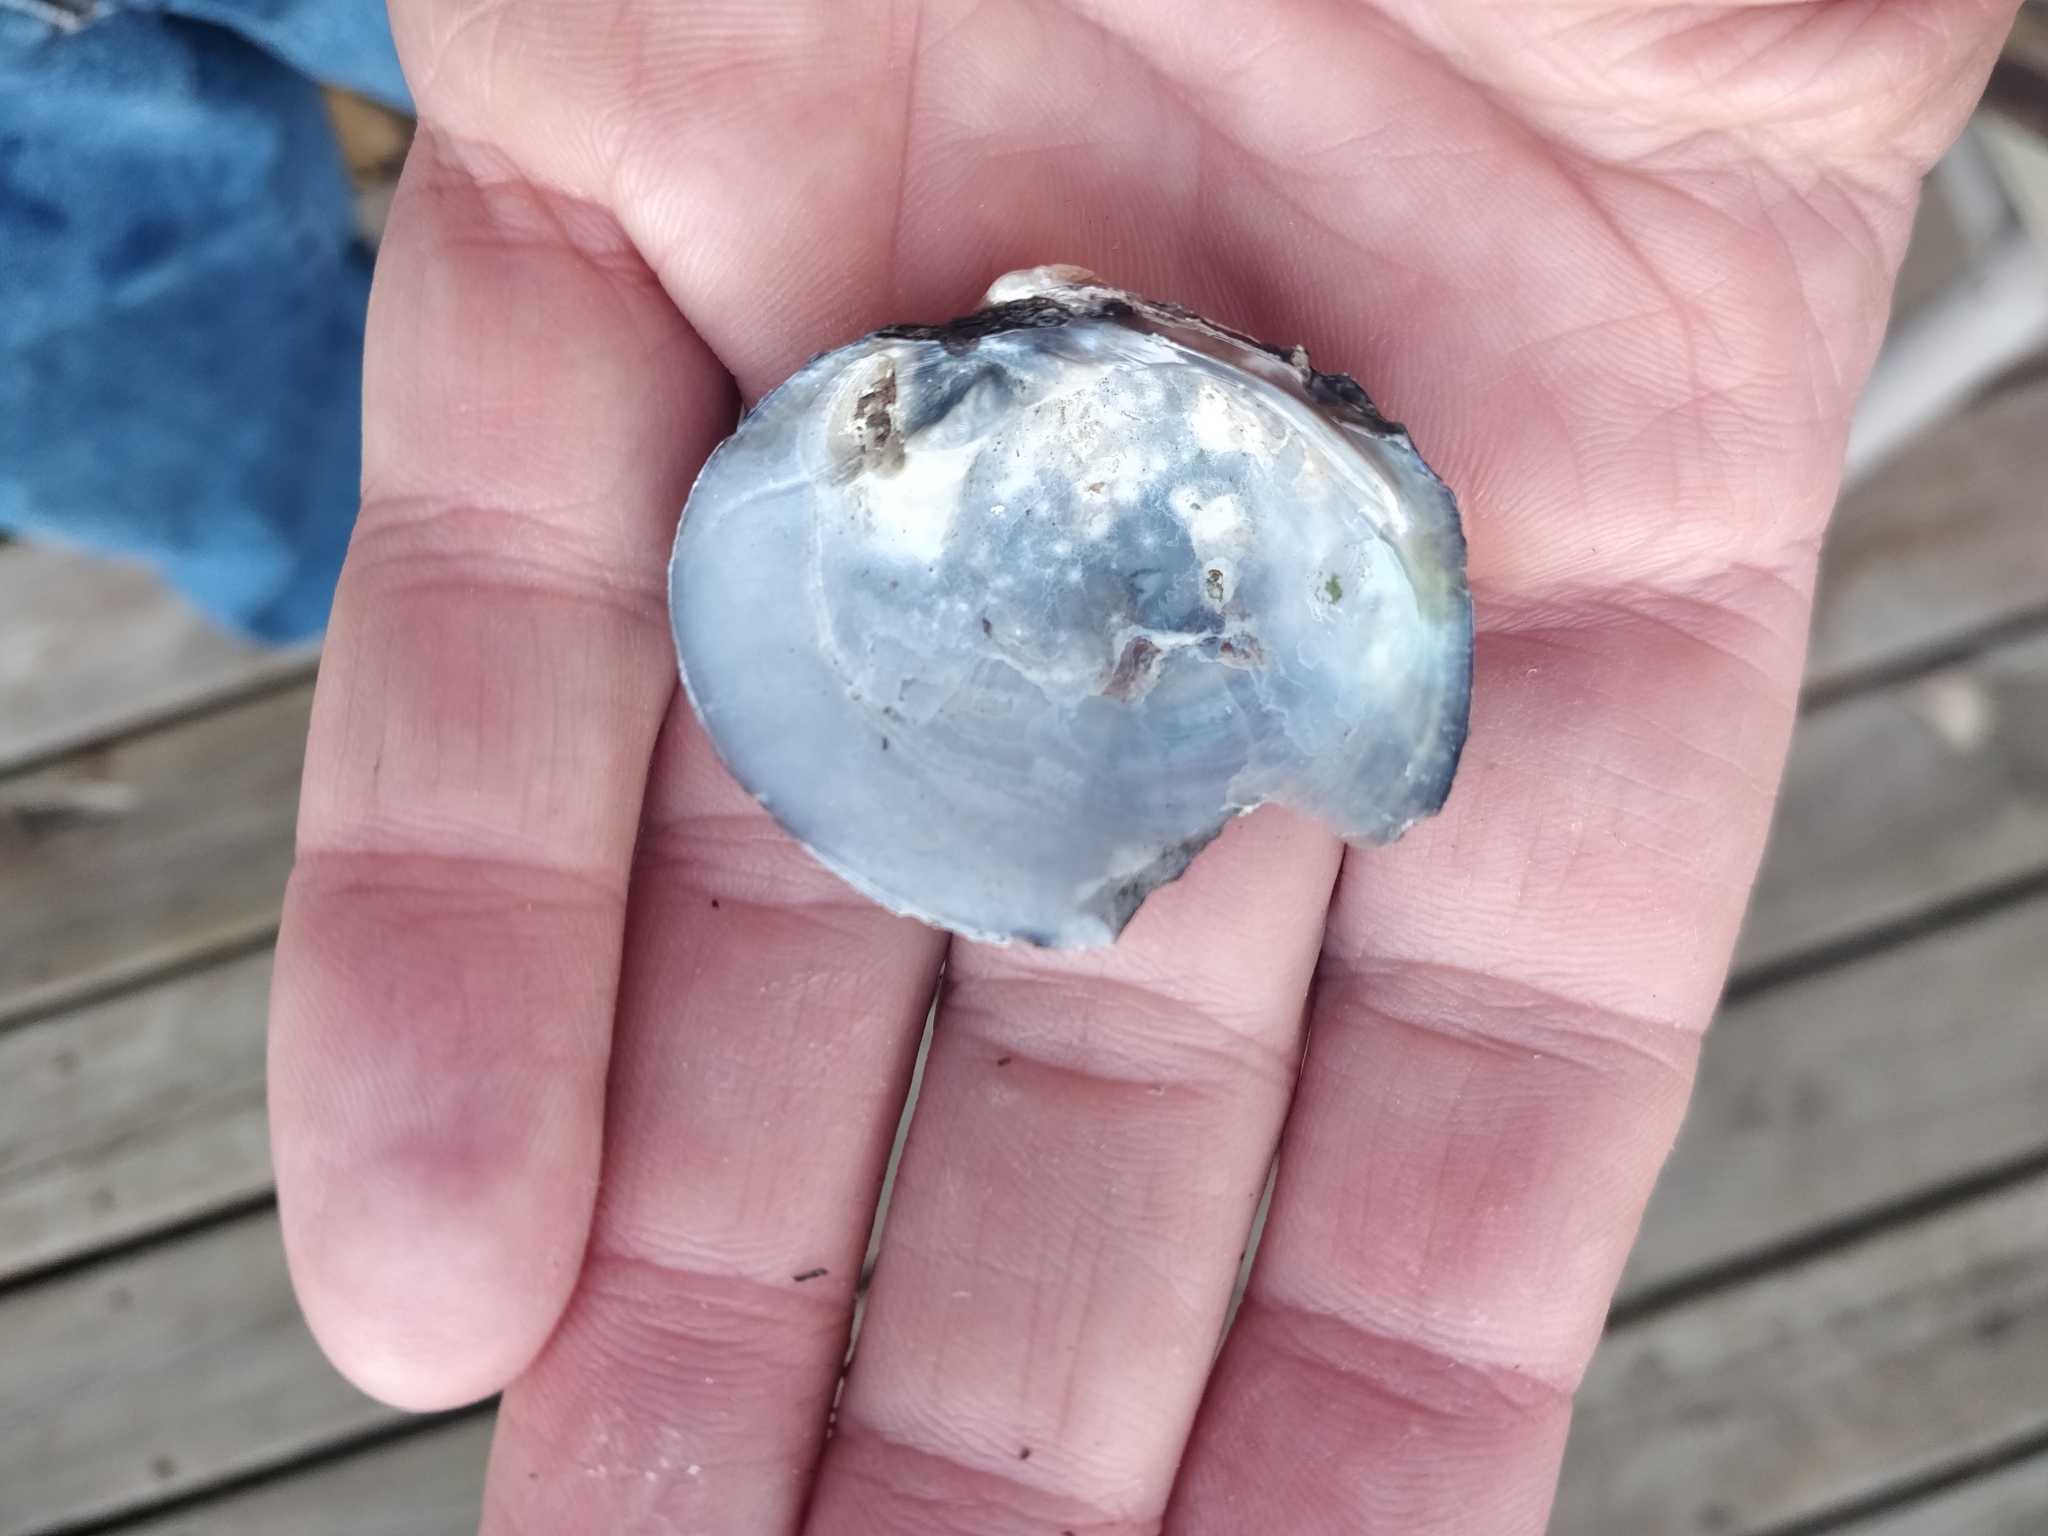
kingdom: Animalia
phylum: Mollusca
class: Bivalvia
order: Unionida
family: Unionidae
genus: Cyclonaias
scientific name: Cyclonaias pustulosa
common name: Pimpleback
